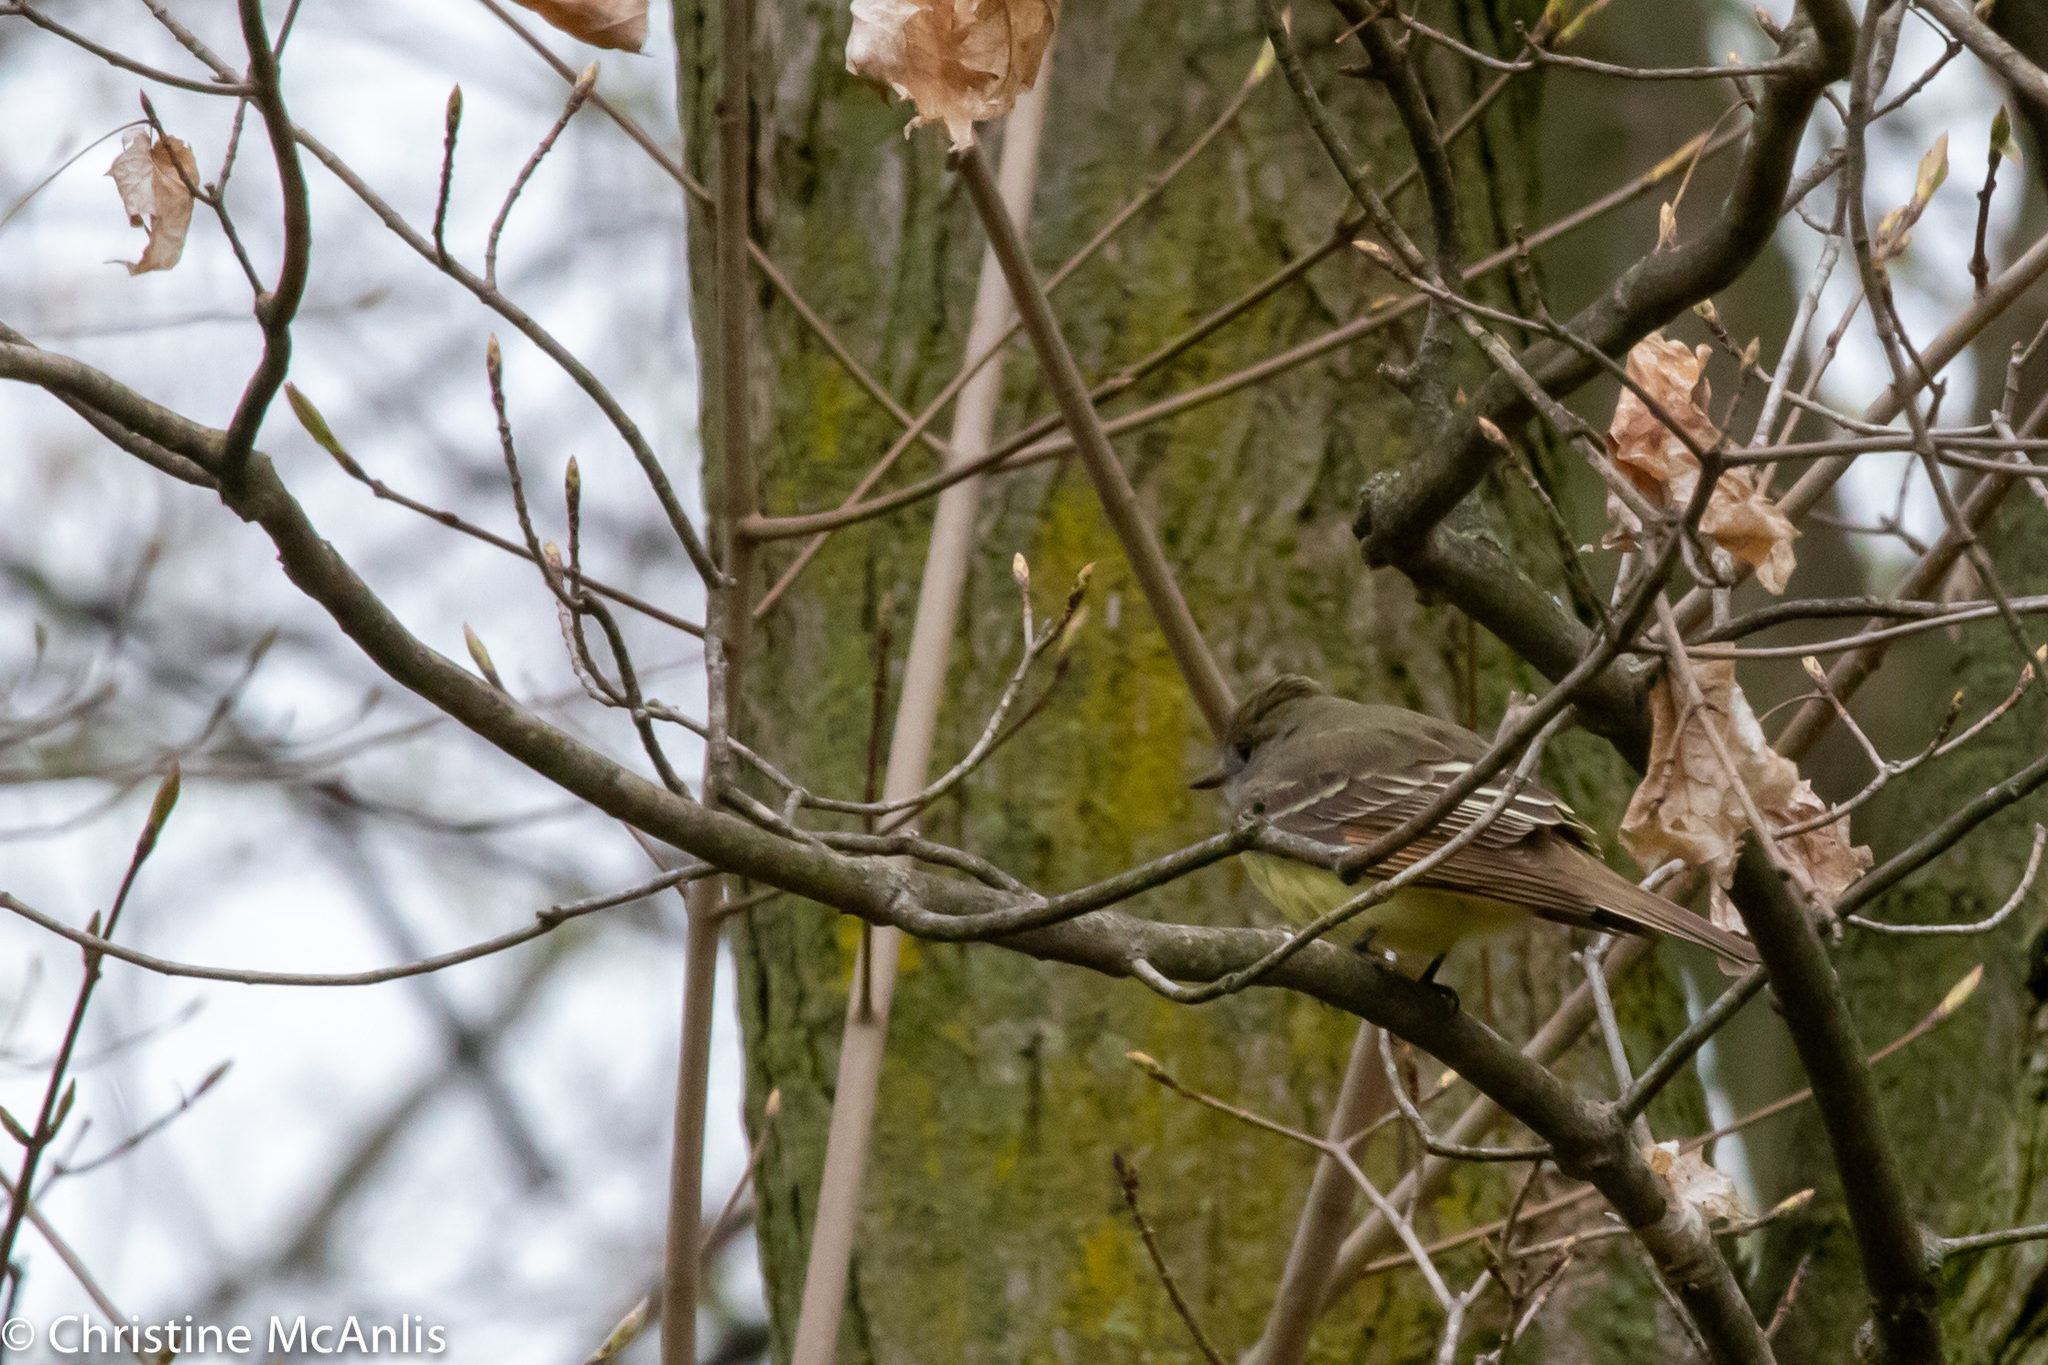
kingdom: Animalia
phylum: Chordata
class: Aves
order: Passeriformes
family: Tyrannidae
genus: Myiarchus
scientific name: Myiarchus crinitus
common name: Great crested flycatcher
